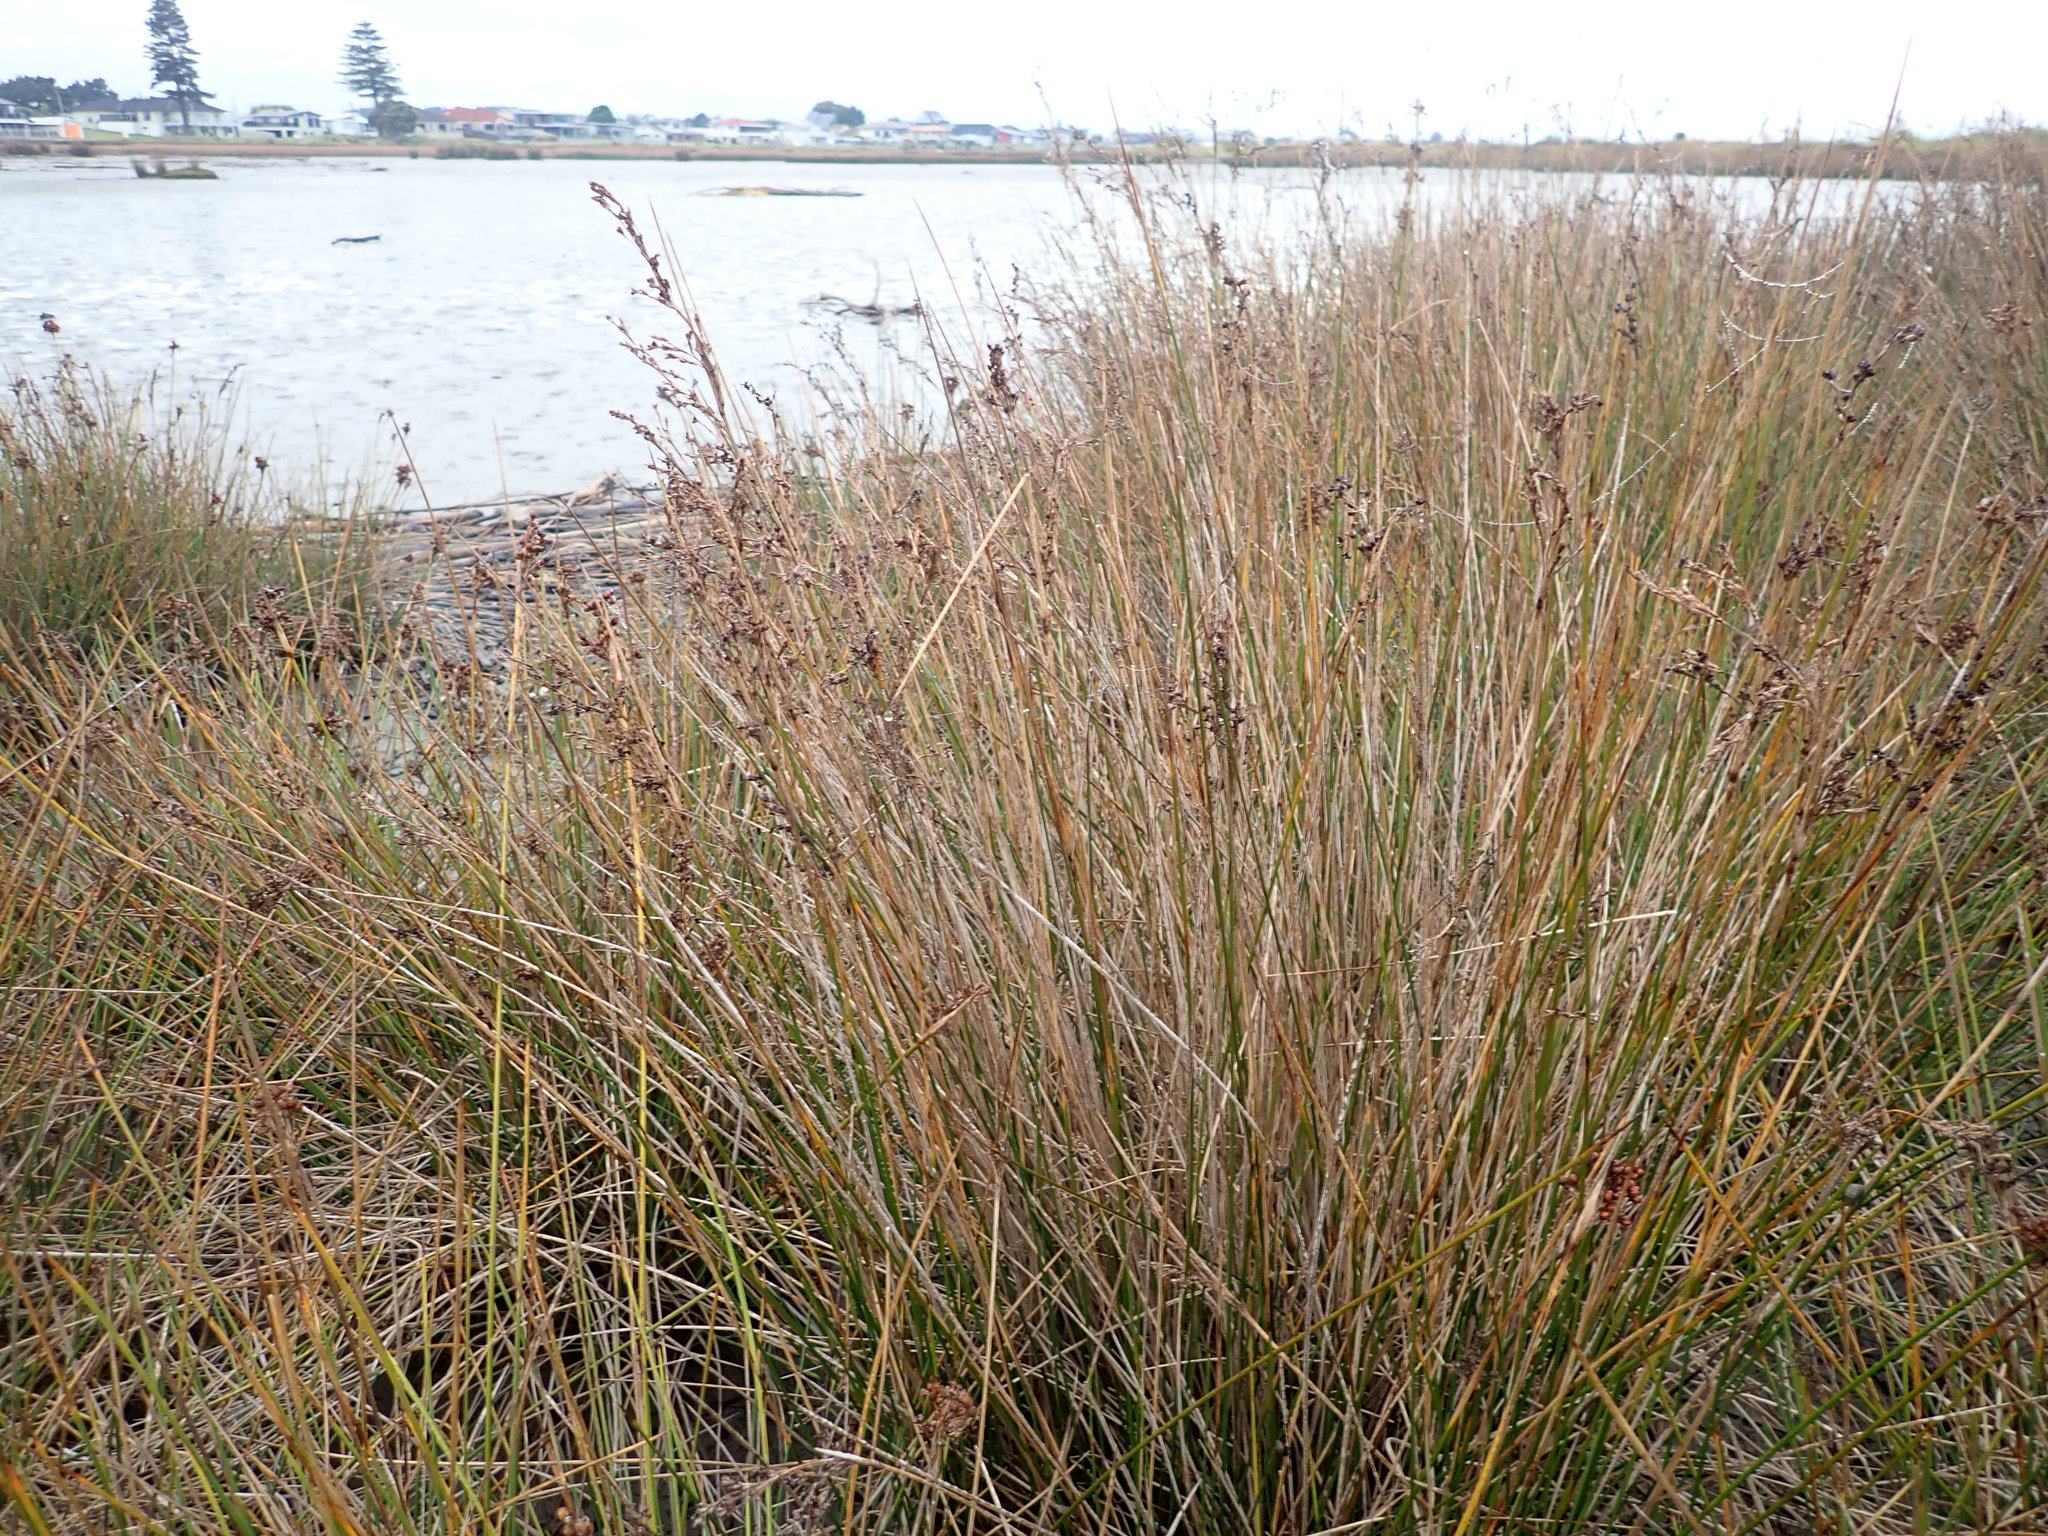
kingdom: Plantae
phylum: Tracheophyta
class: Liliopsida
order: Poales
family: Juncaceae
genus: Juncus
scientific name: Juncus kraussii
